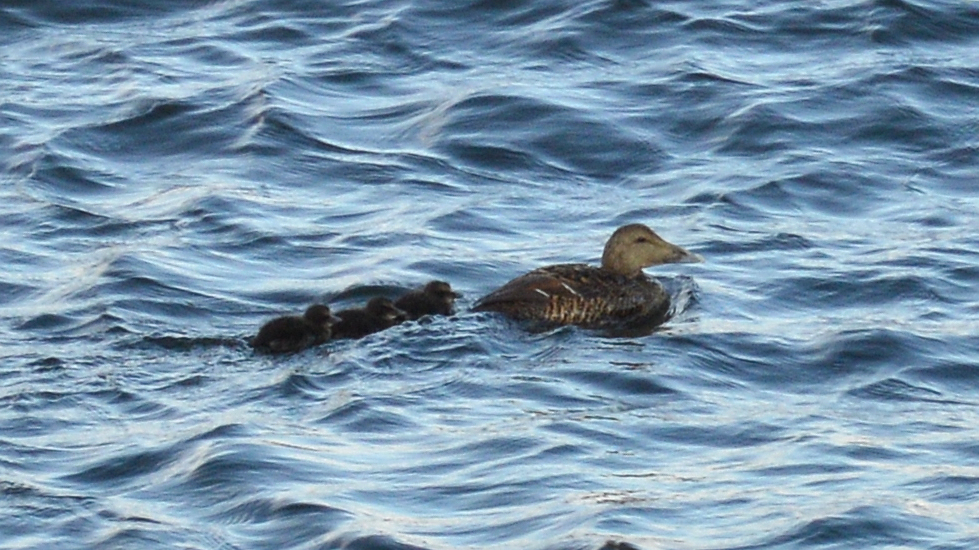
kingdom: Animalia
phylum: Chordata
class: Aves
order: Anseriformes
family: Anatidae
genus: Somateria
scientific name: Somateria mollissima
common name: Common eider
